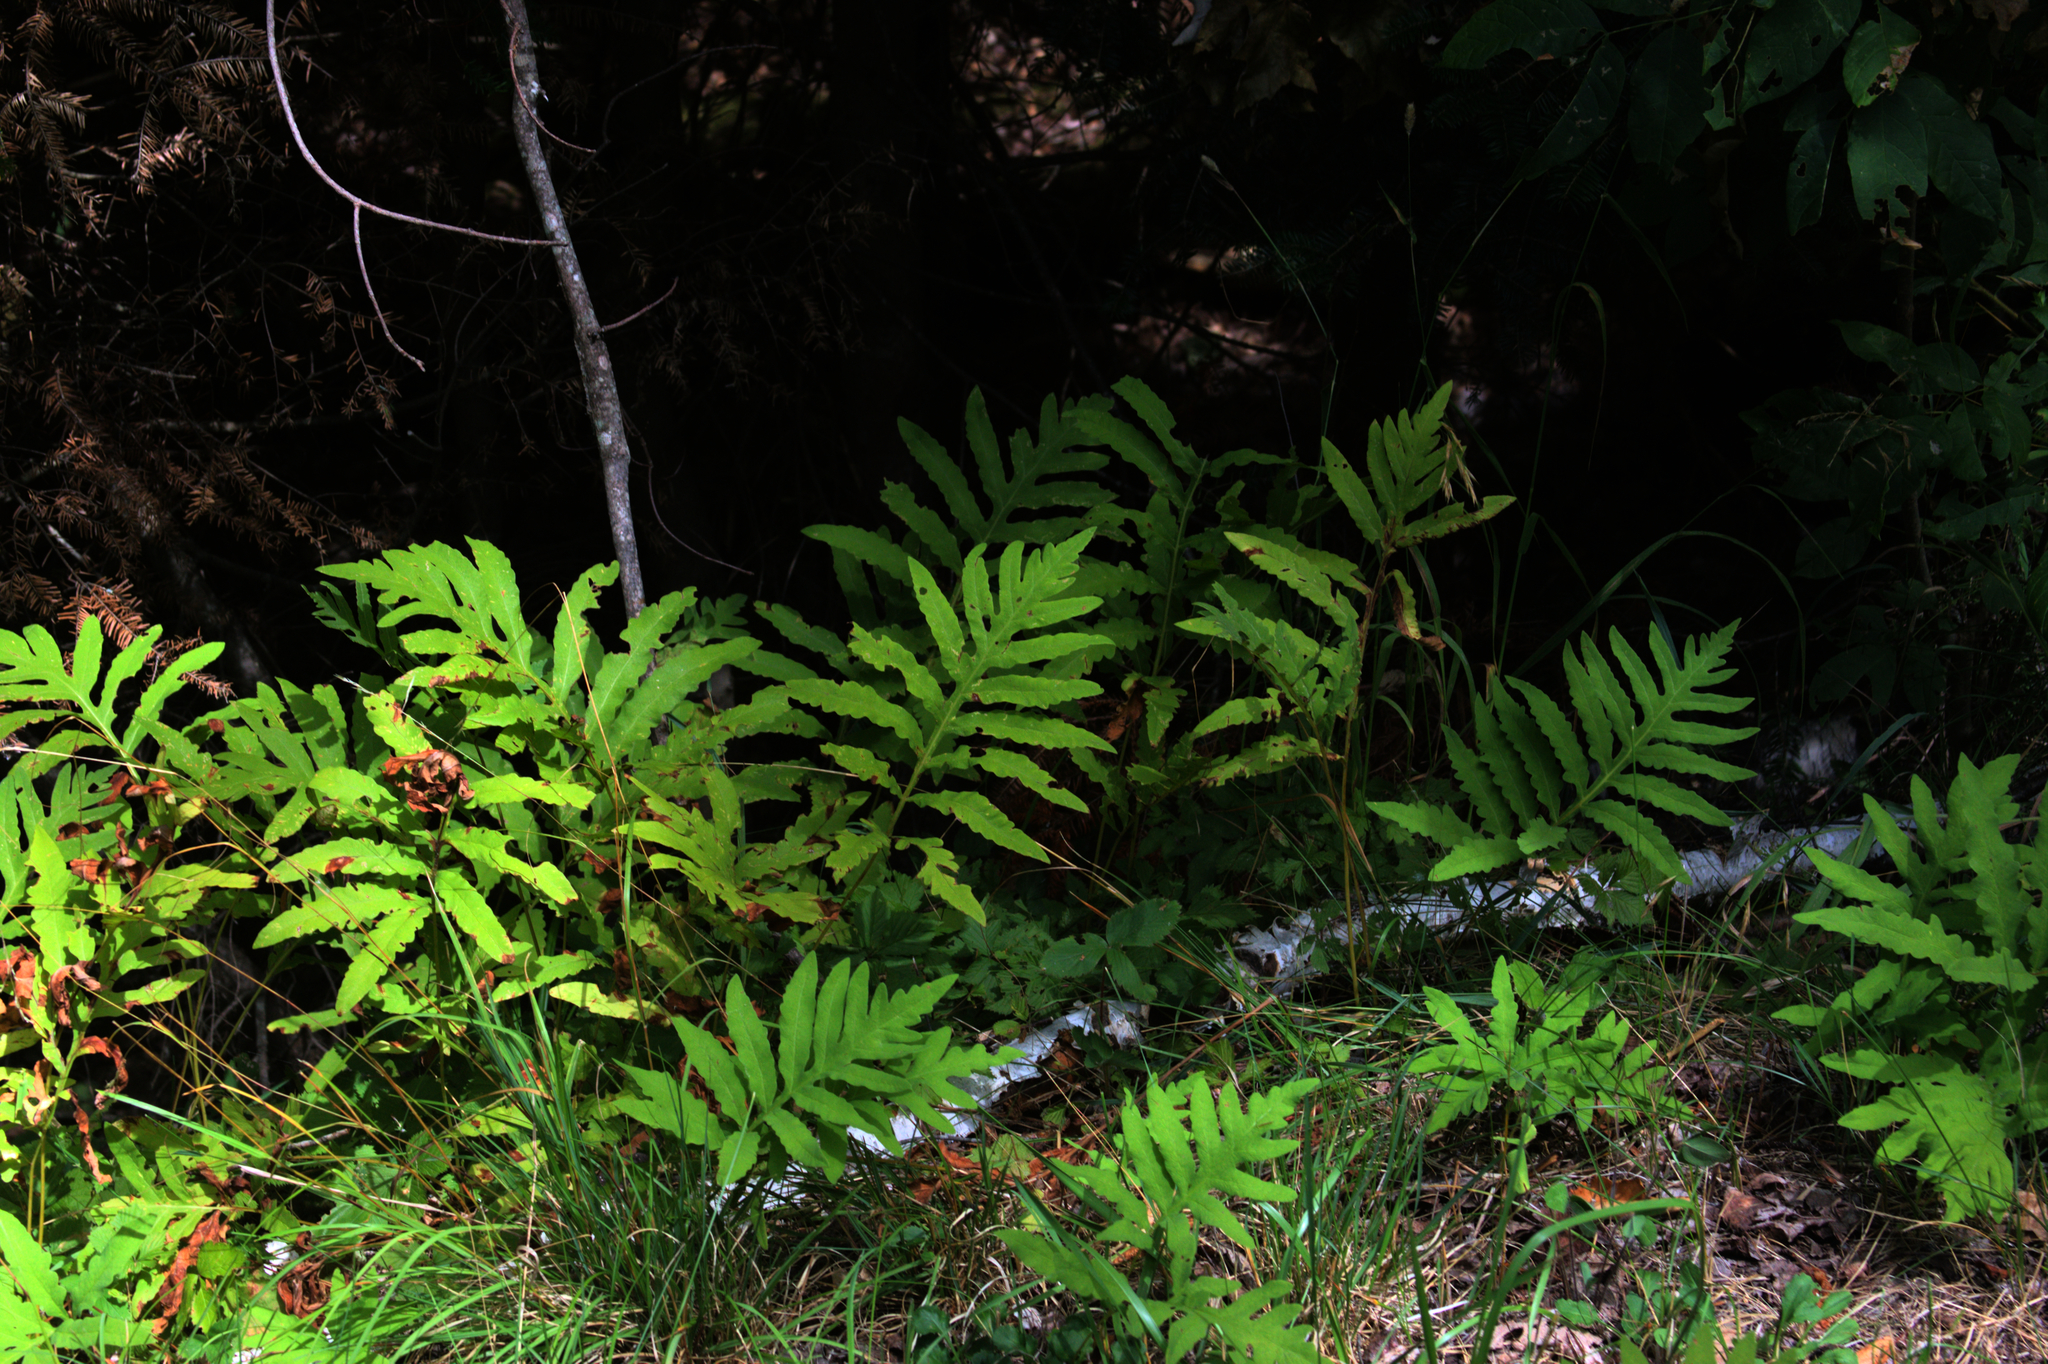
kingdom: Plantae
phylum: Tracheophyta
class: Polypodiopsida
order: Polypodiales
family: Onocleaceae
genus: Onoclea
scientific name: Onoclea sensibilis
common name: Sensitive fern
